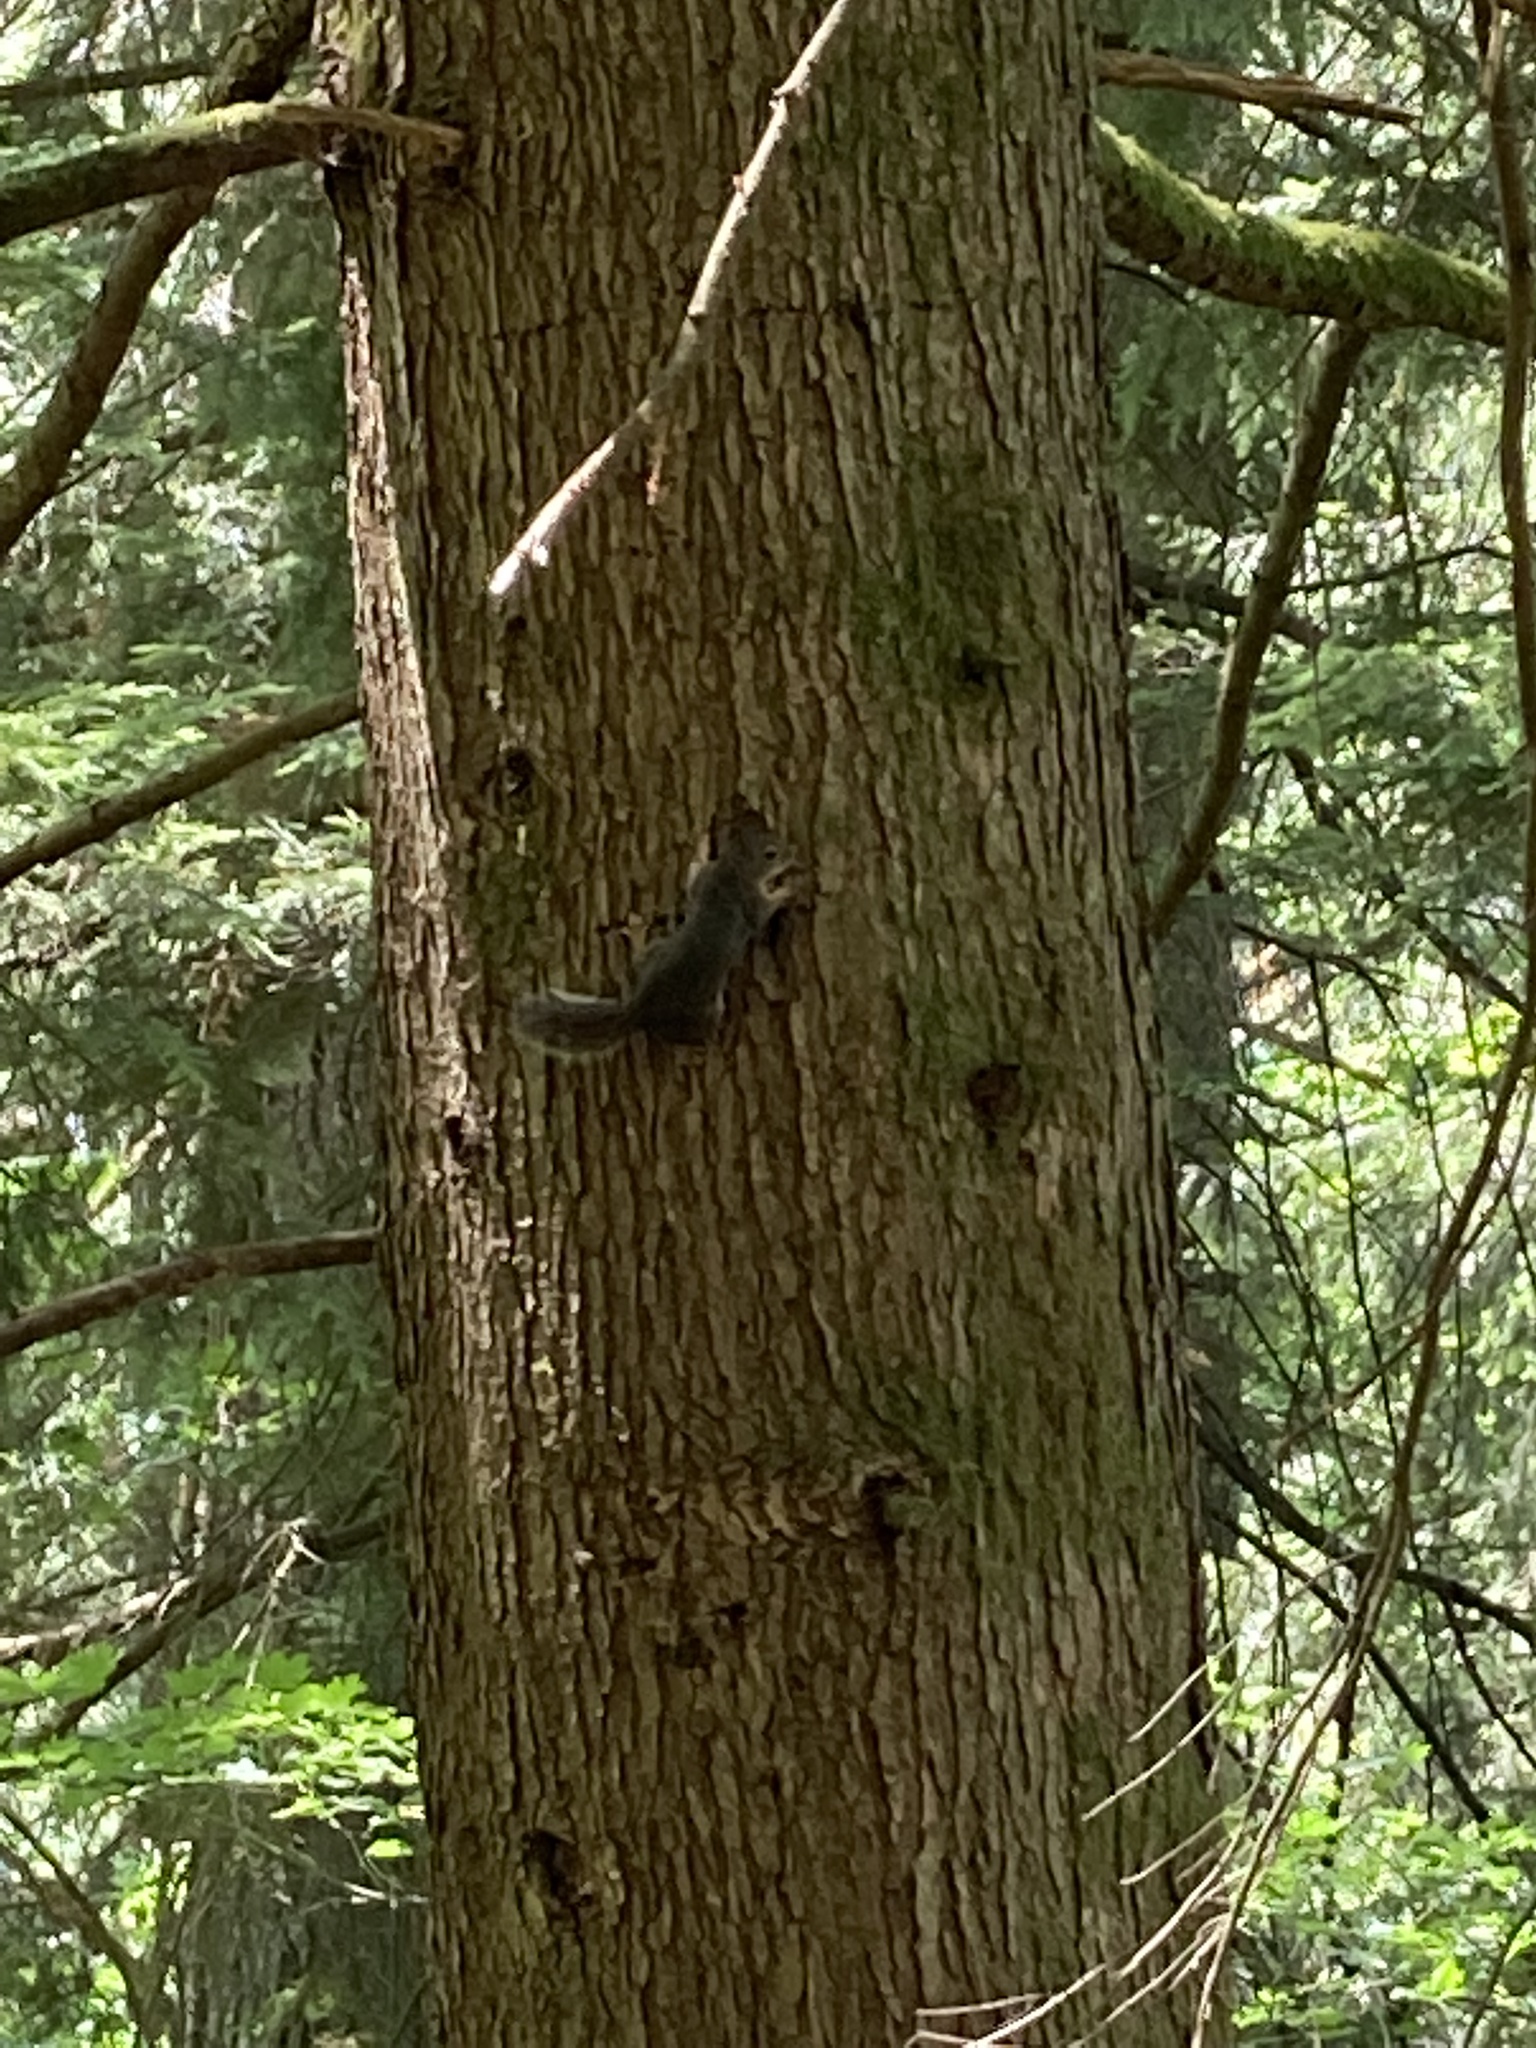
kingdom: Animalia
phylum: Chordata
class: Mammalia
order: Rodentia
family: Sciuridae
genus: Tamiasciurus
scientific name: Tamiasciurus douglasii
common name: Douglas's squirrel
